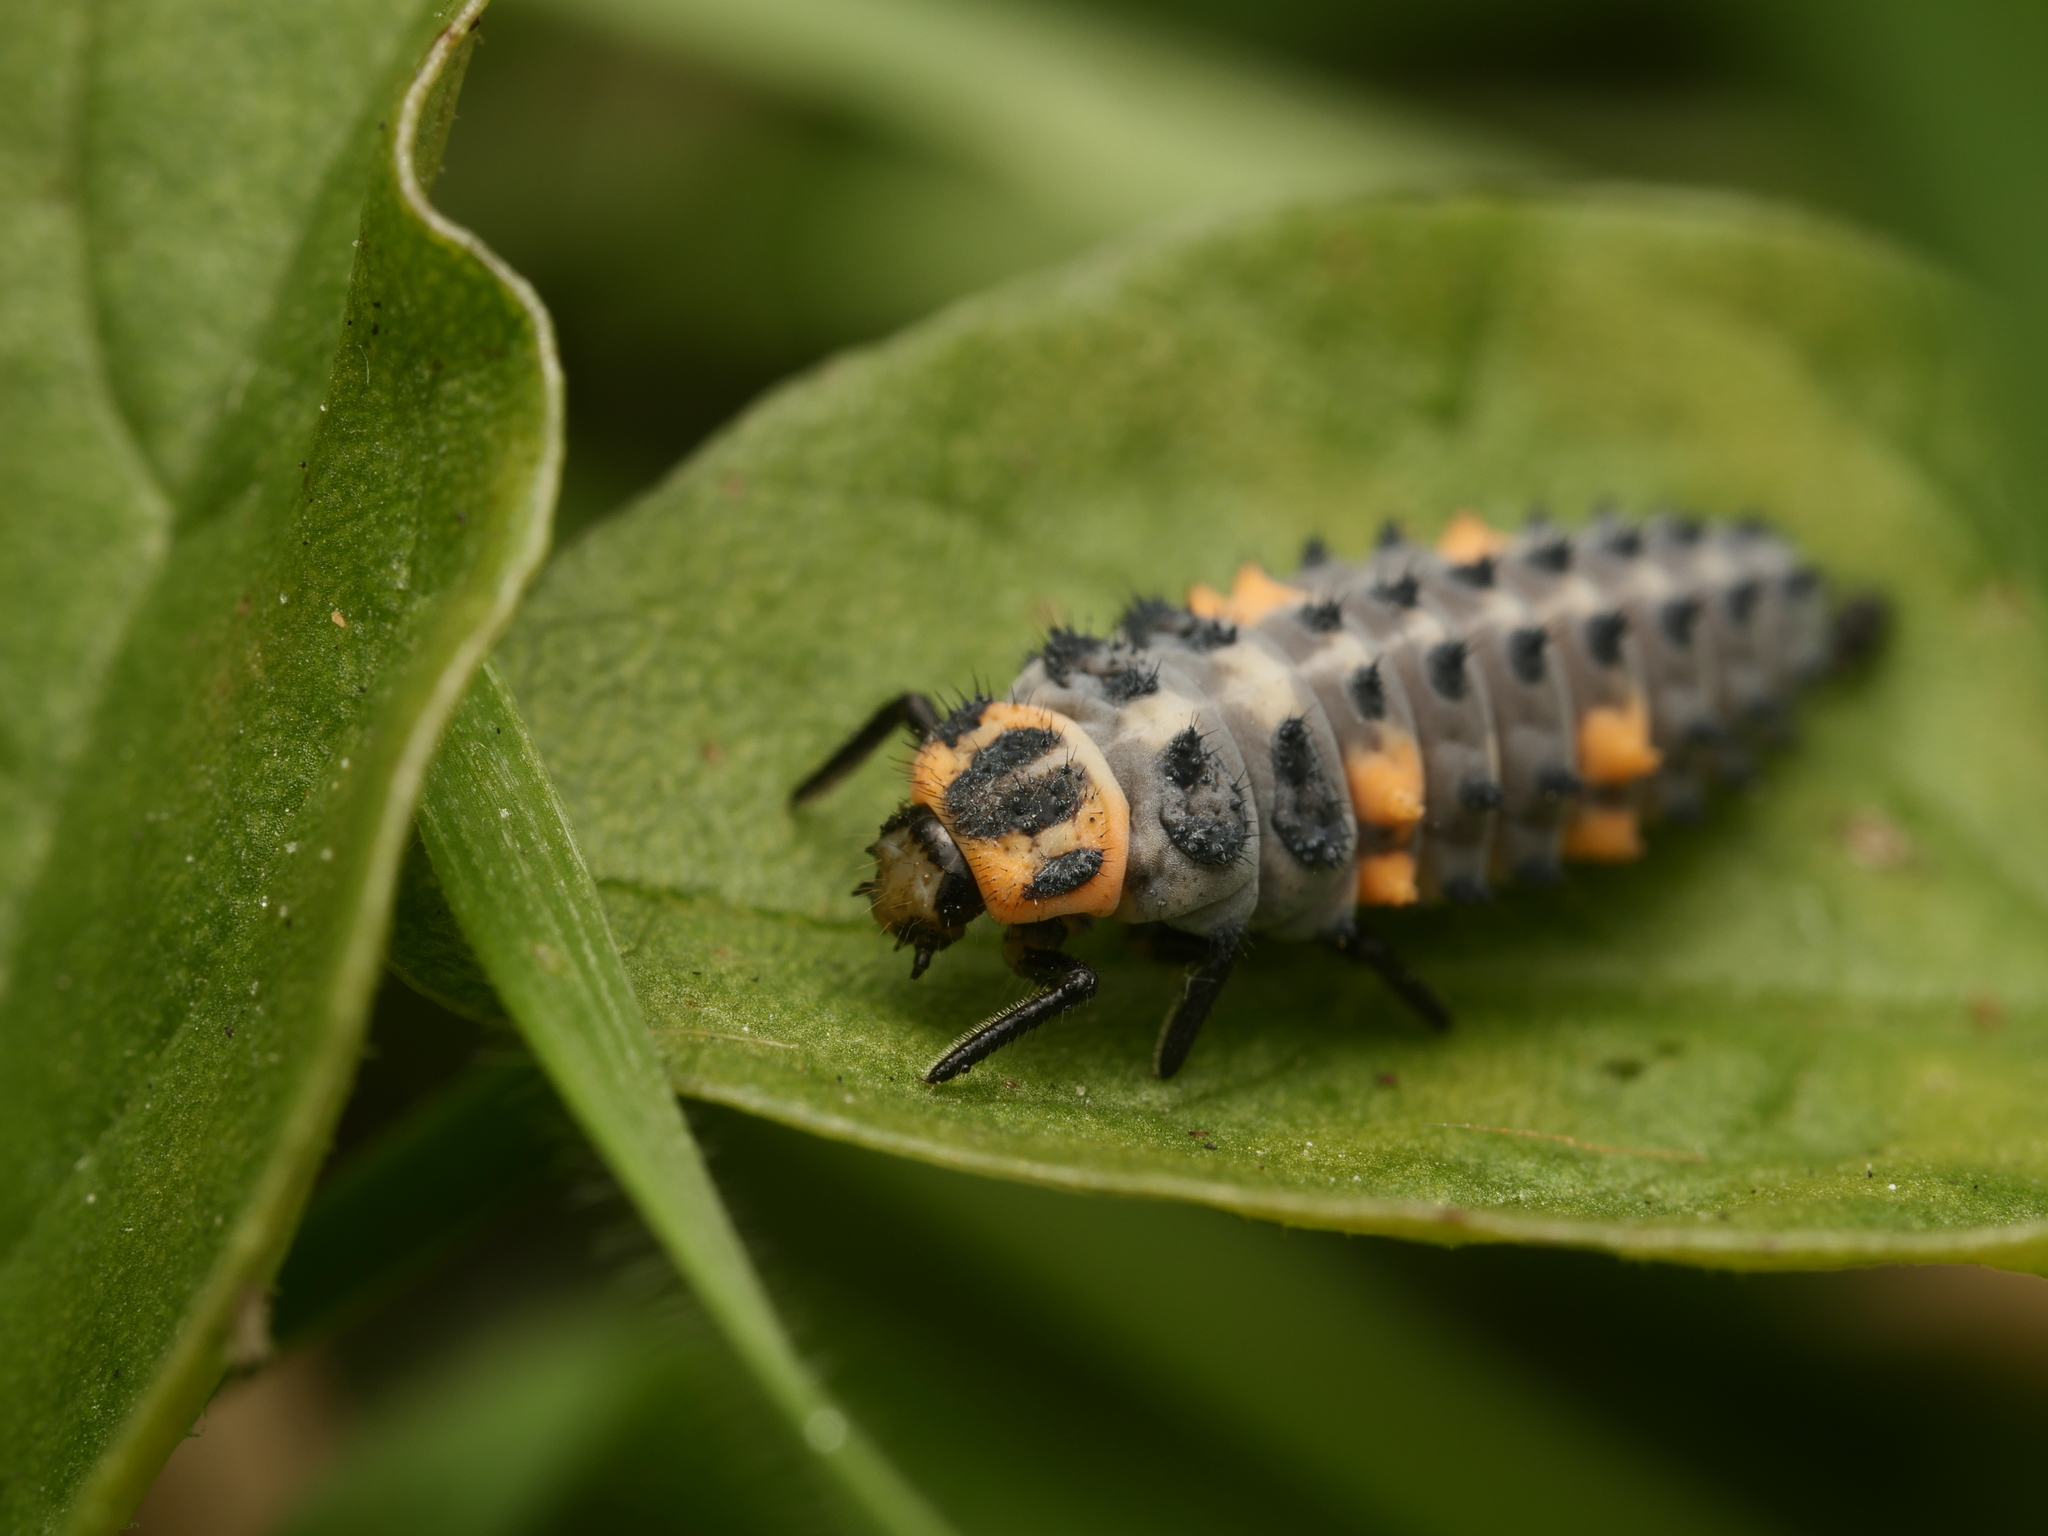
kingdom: Animalia
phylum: Arthropoda
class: Insecta
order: Coleoptera
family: Coccinellidae
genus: Coccinella
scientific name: Coccinella septempunctata
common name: Sevenspotted lady beetle
